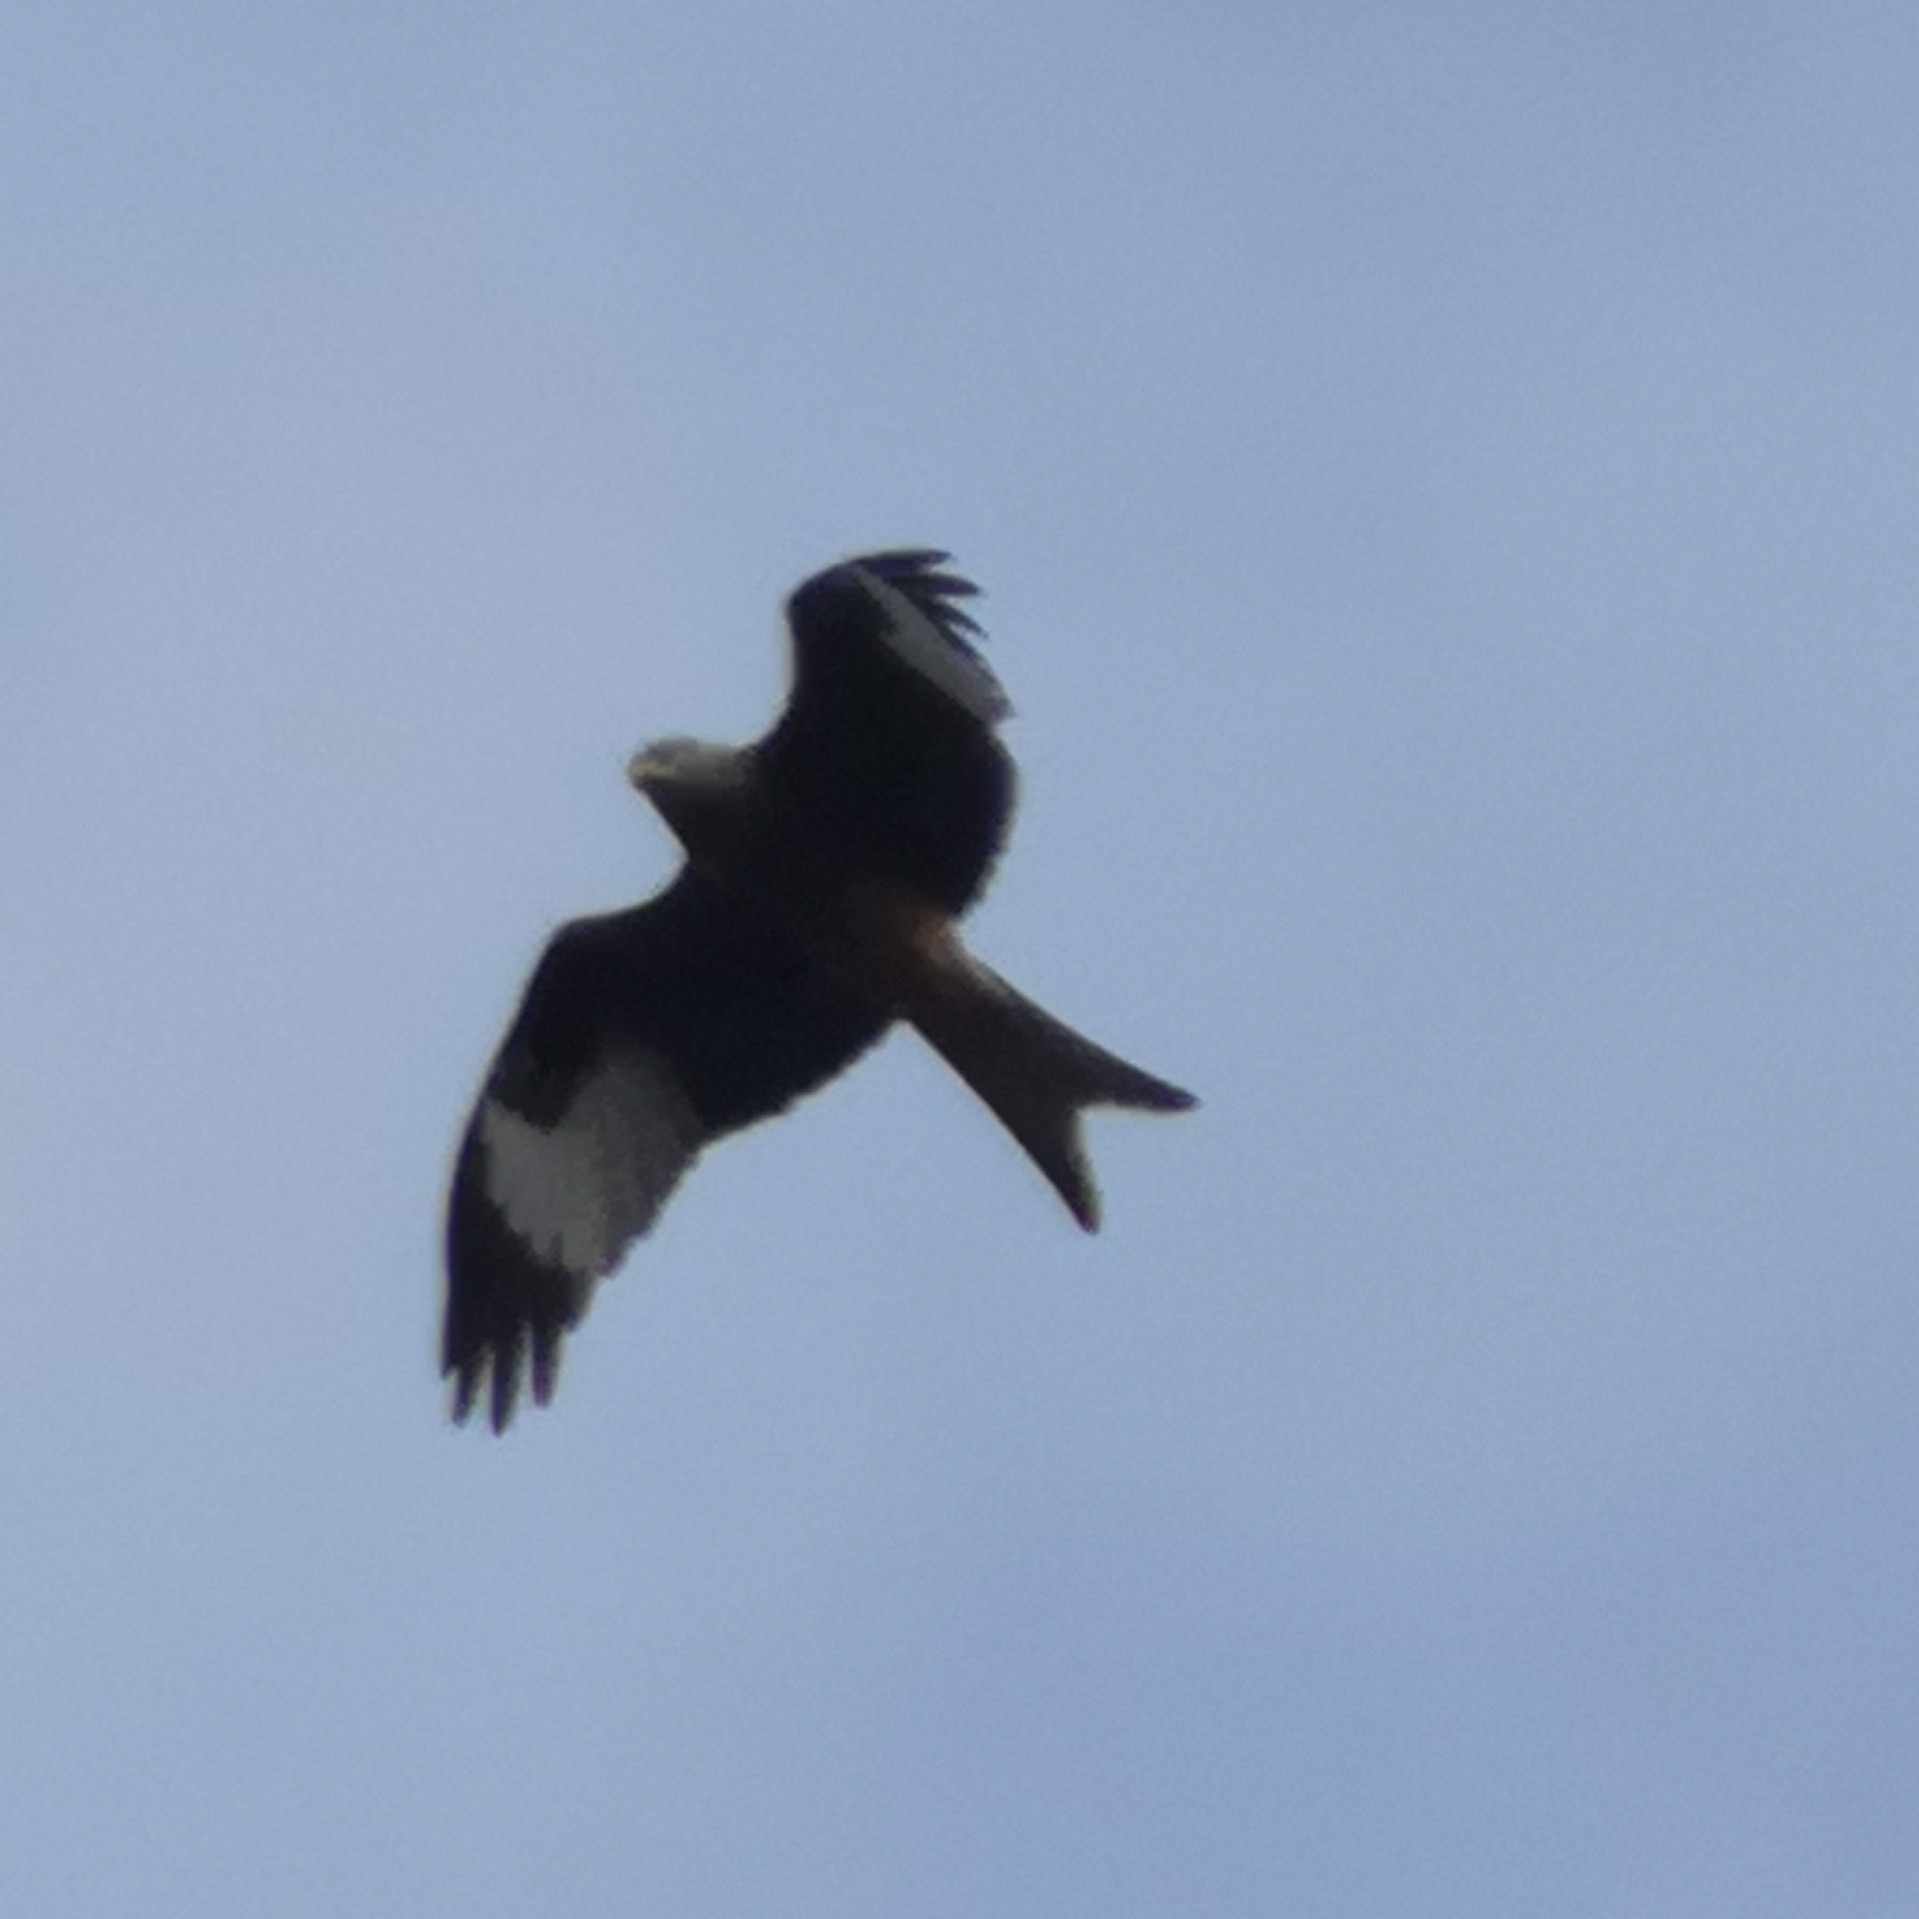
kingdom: Animalia
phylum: Chordata
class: Aves
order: Accipitriformes
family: Accipitridae
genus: Milvus
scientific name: Milvus milvus
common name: Red kite
